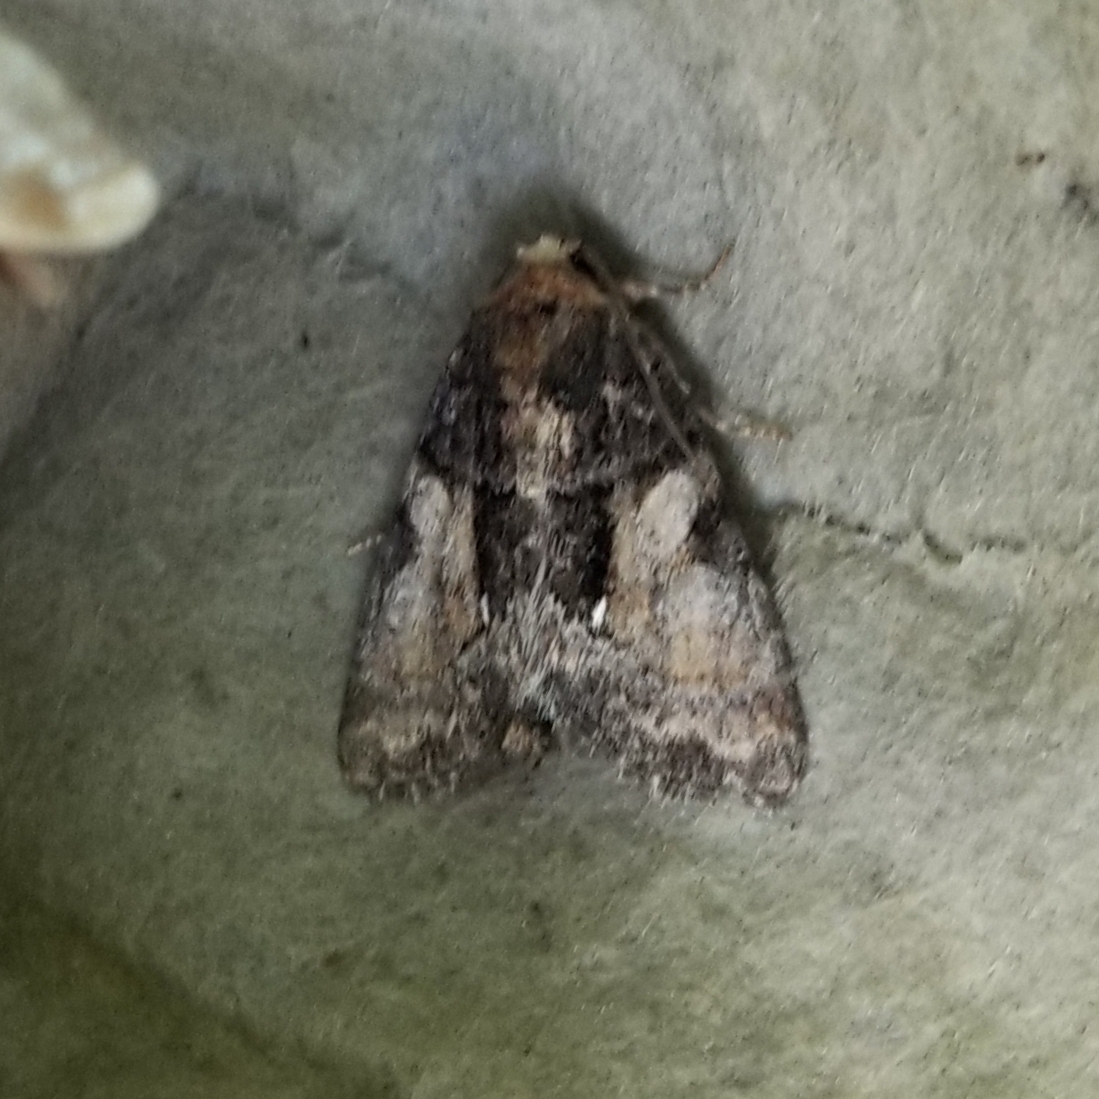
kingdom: Animalia
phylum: Arthropoda
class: Insecta
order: Lepidoptera
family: Noctuidae
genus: Chytonix
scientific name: Chytonix palliatricula
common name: Cloaked marvel
